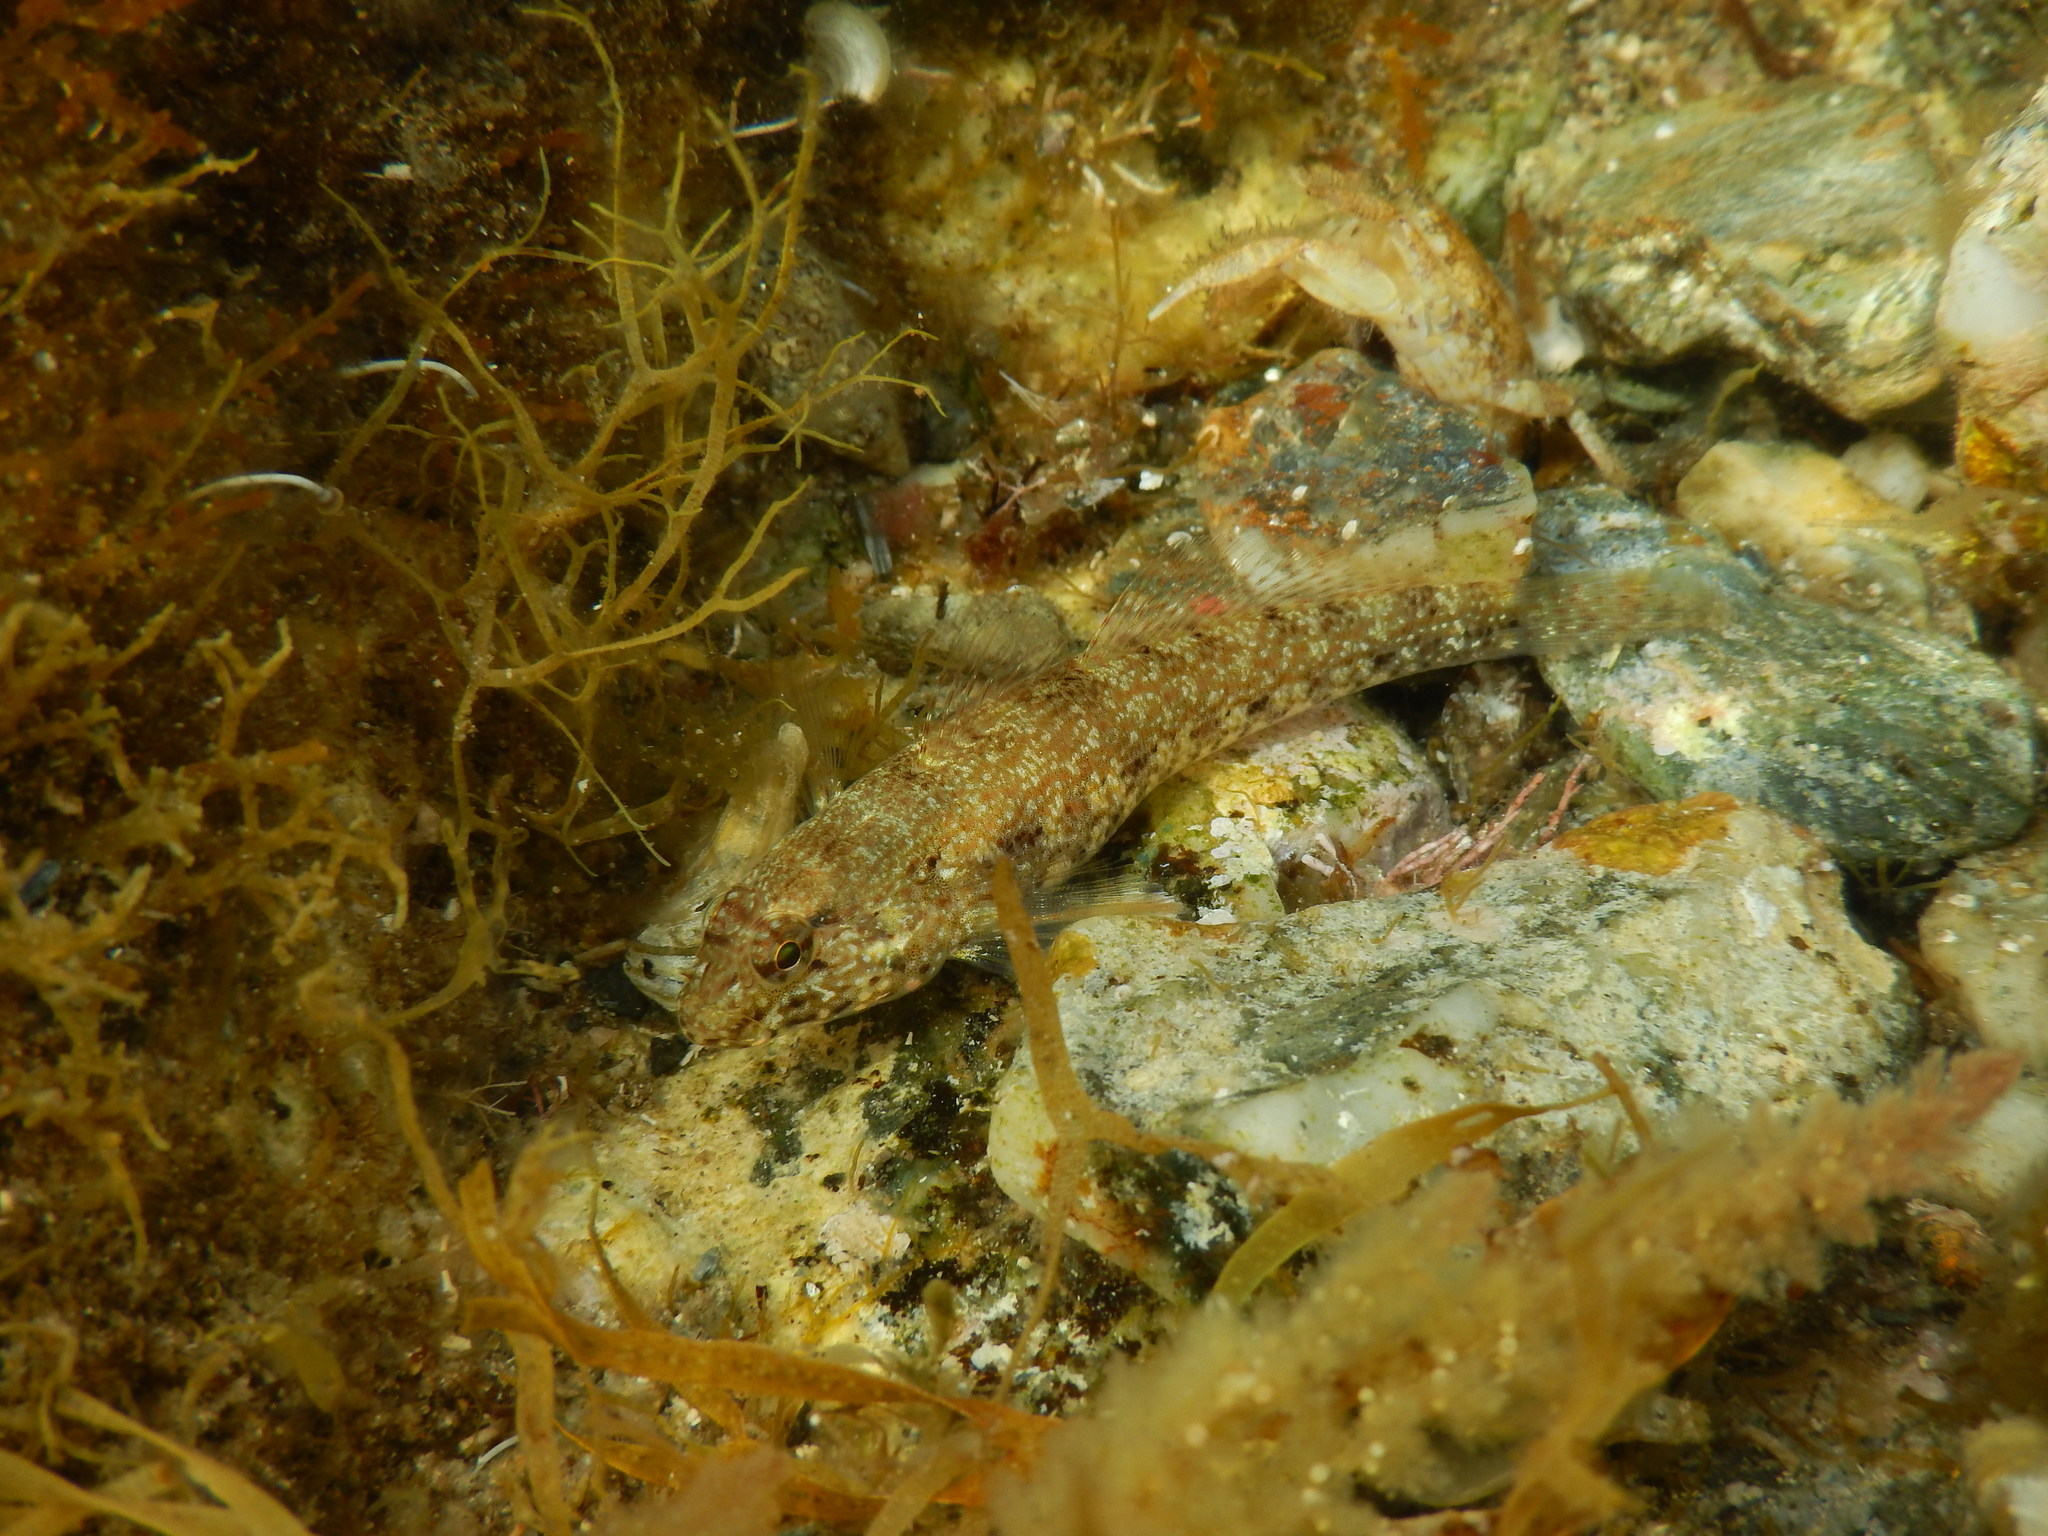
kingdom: Animalia
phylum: Chordata
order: Perciformes
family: Gobiidae
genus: Gobius
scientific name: Gobius incognitus
